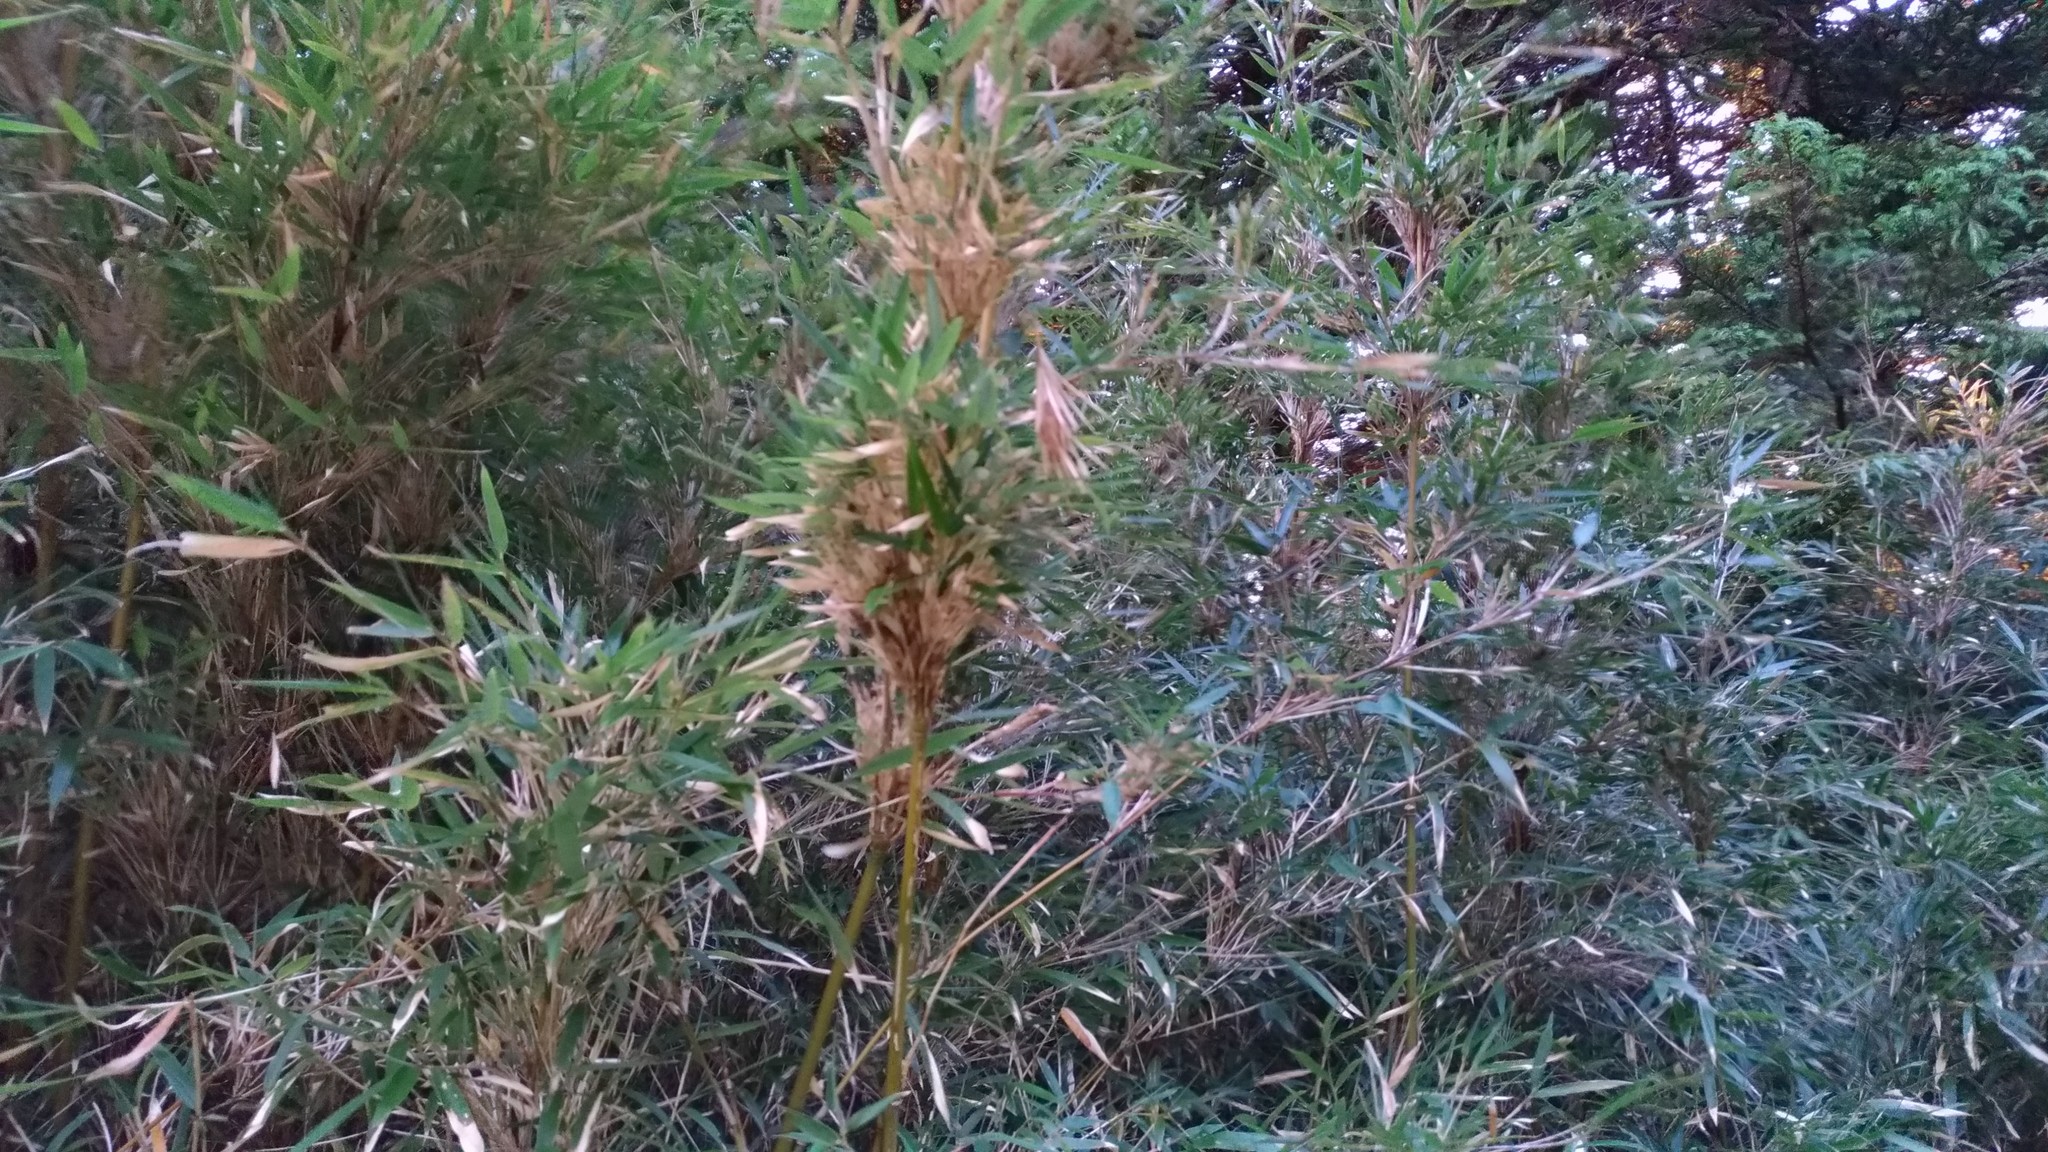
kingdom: Plantae
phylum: Tracheophyta
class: Liliopsida
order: Poales
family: Poaceae
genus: Yushania
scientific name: Yushania niitakayamensis
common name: Yushan cane
